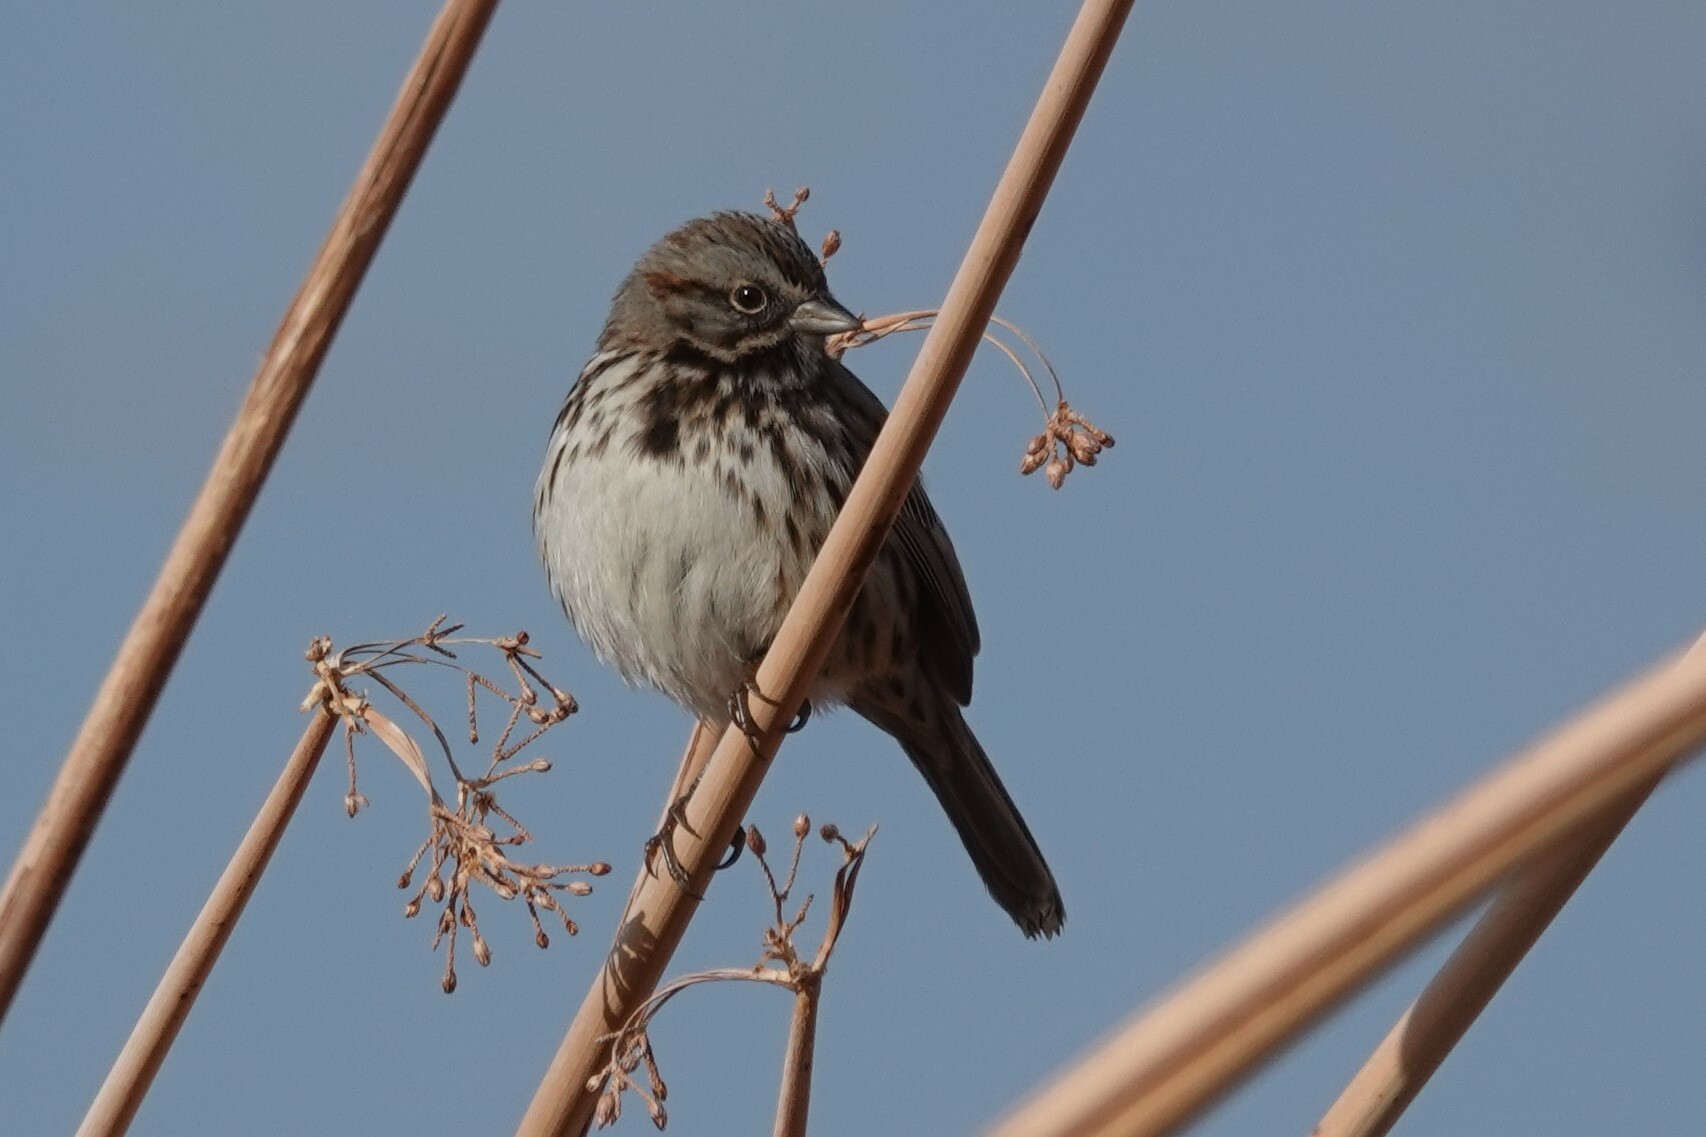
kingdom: Animalia
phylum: Chordata
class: Aves
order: Passeriformes
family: Passerellidae
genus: Melospiza
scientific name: Melospiza melodia
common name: Song sparrow
